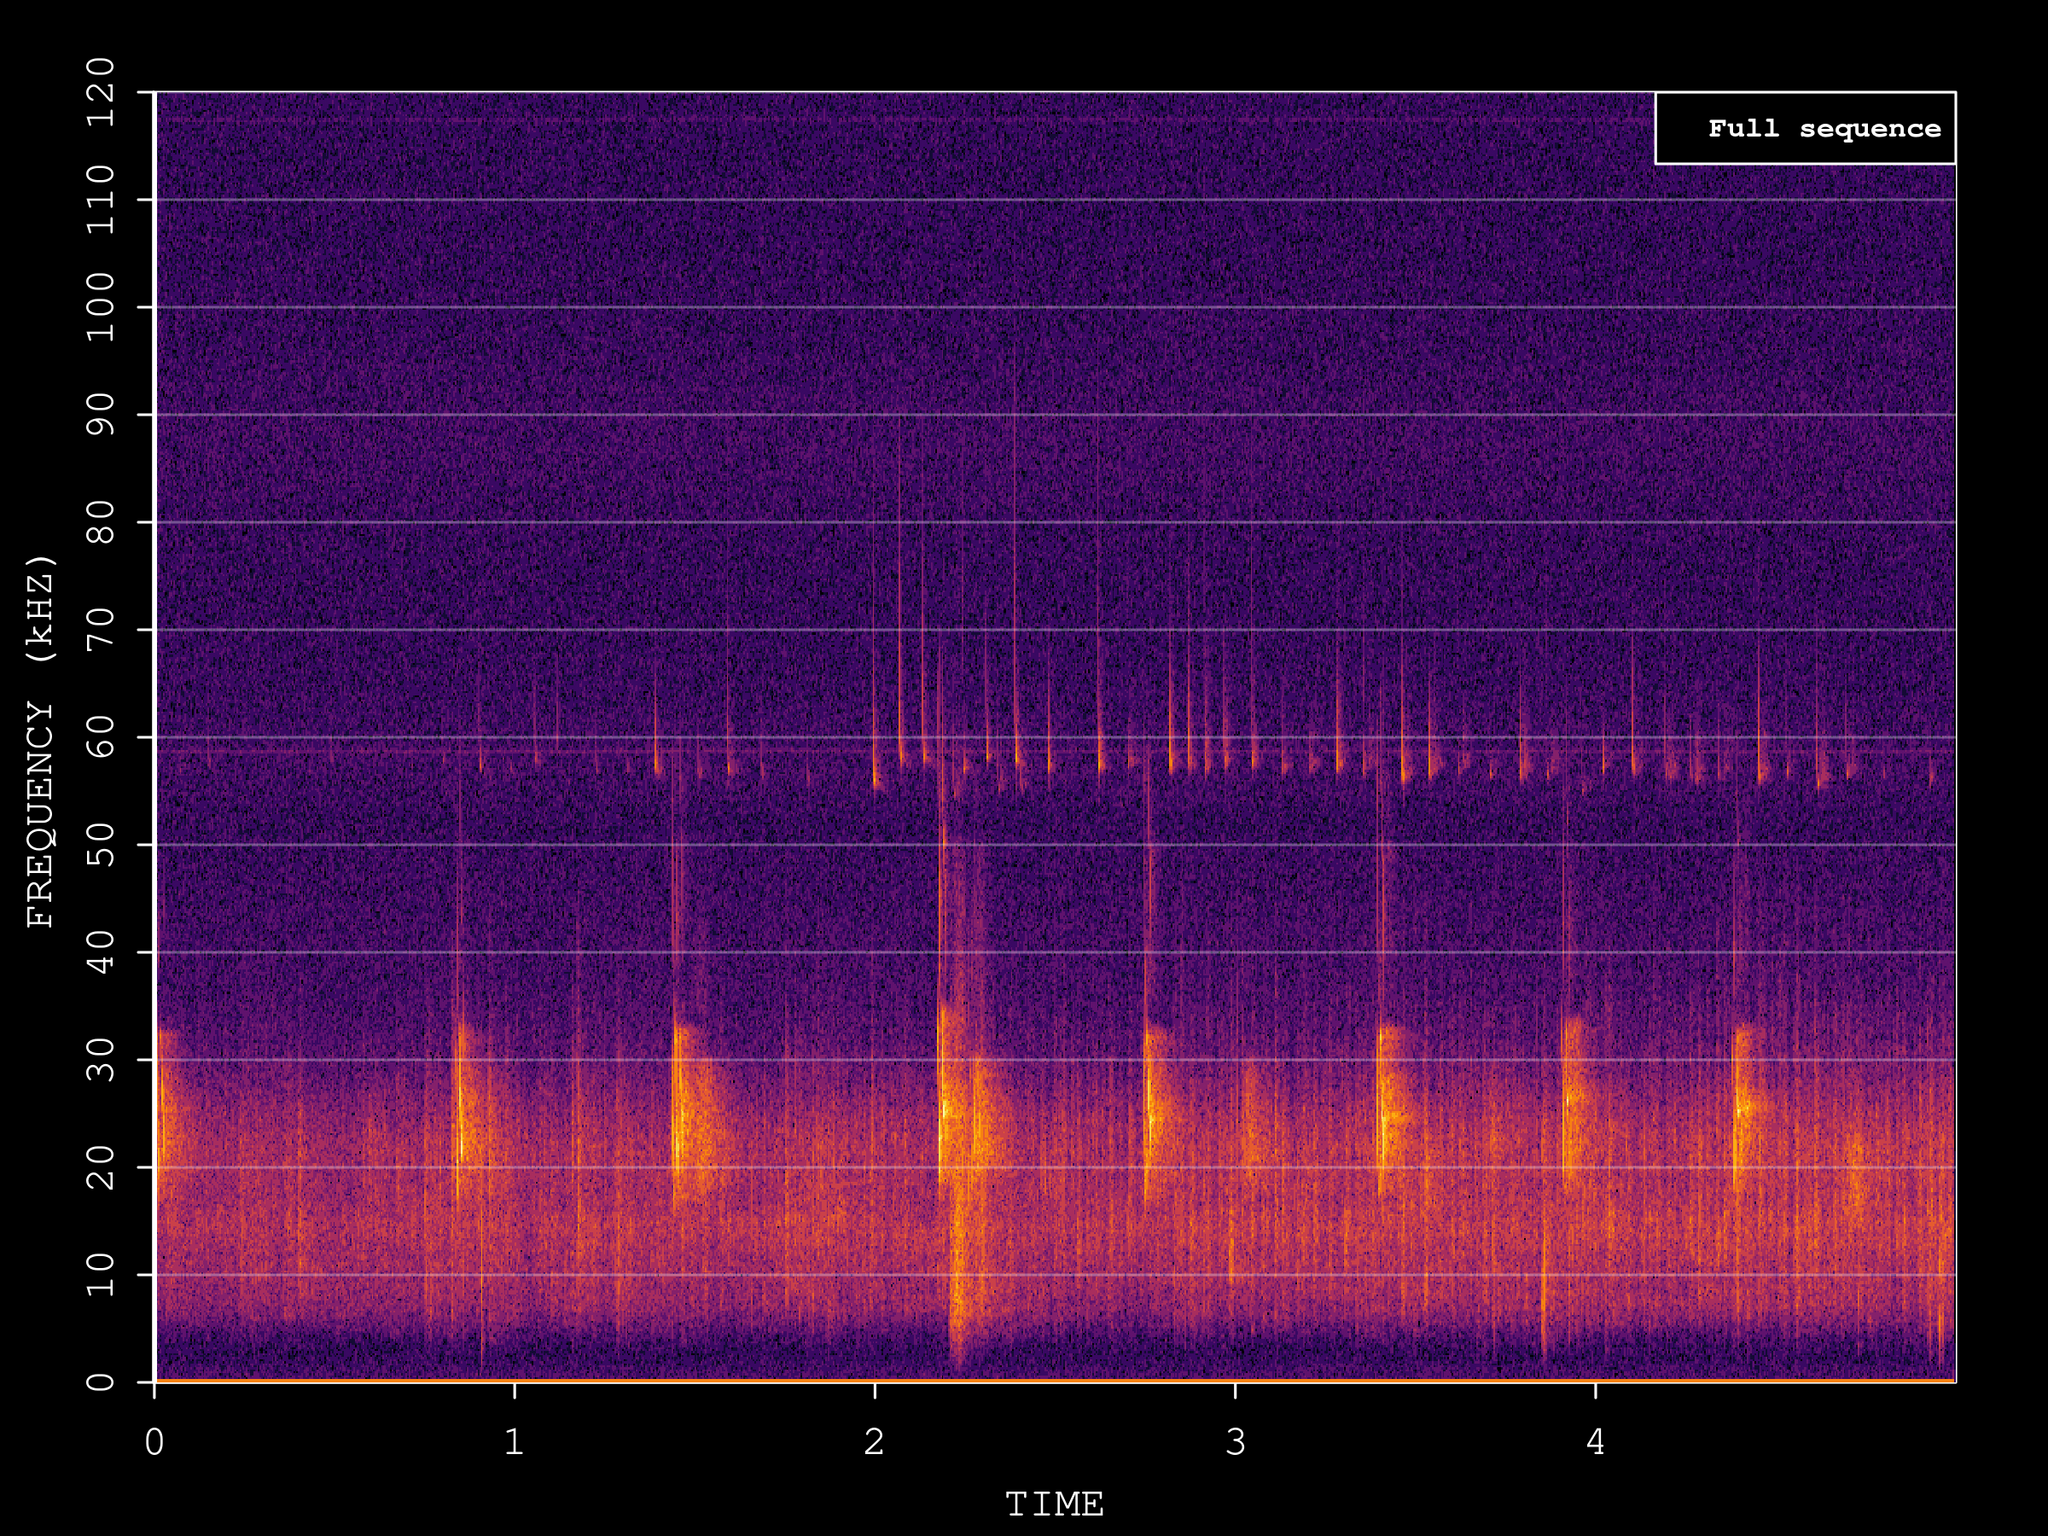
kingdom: Animalia
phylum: Chordata
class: Mammalia
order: Chiroptera
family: Vespertilionidae
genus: Pipistrellus
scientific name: Pipistrellus pygmaeus
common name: Soprano pipistrelle
